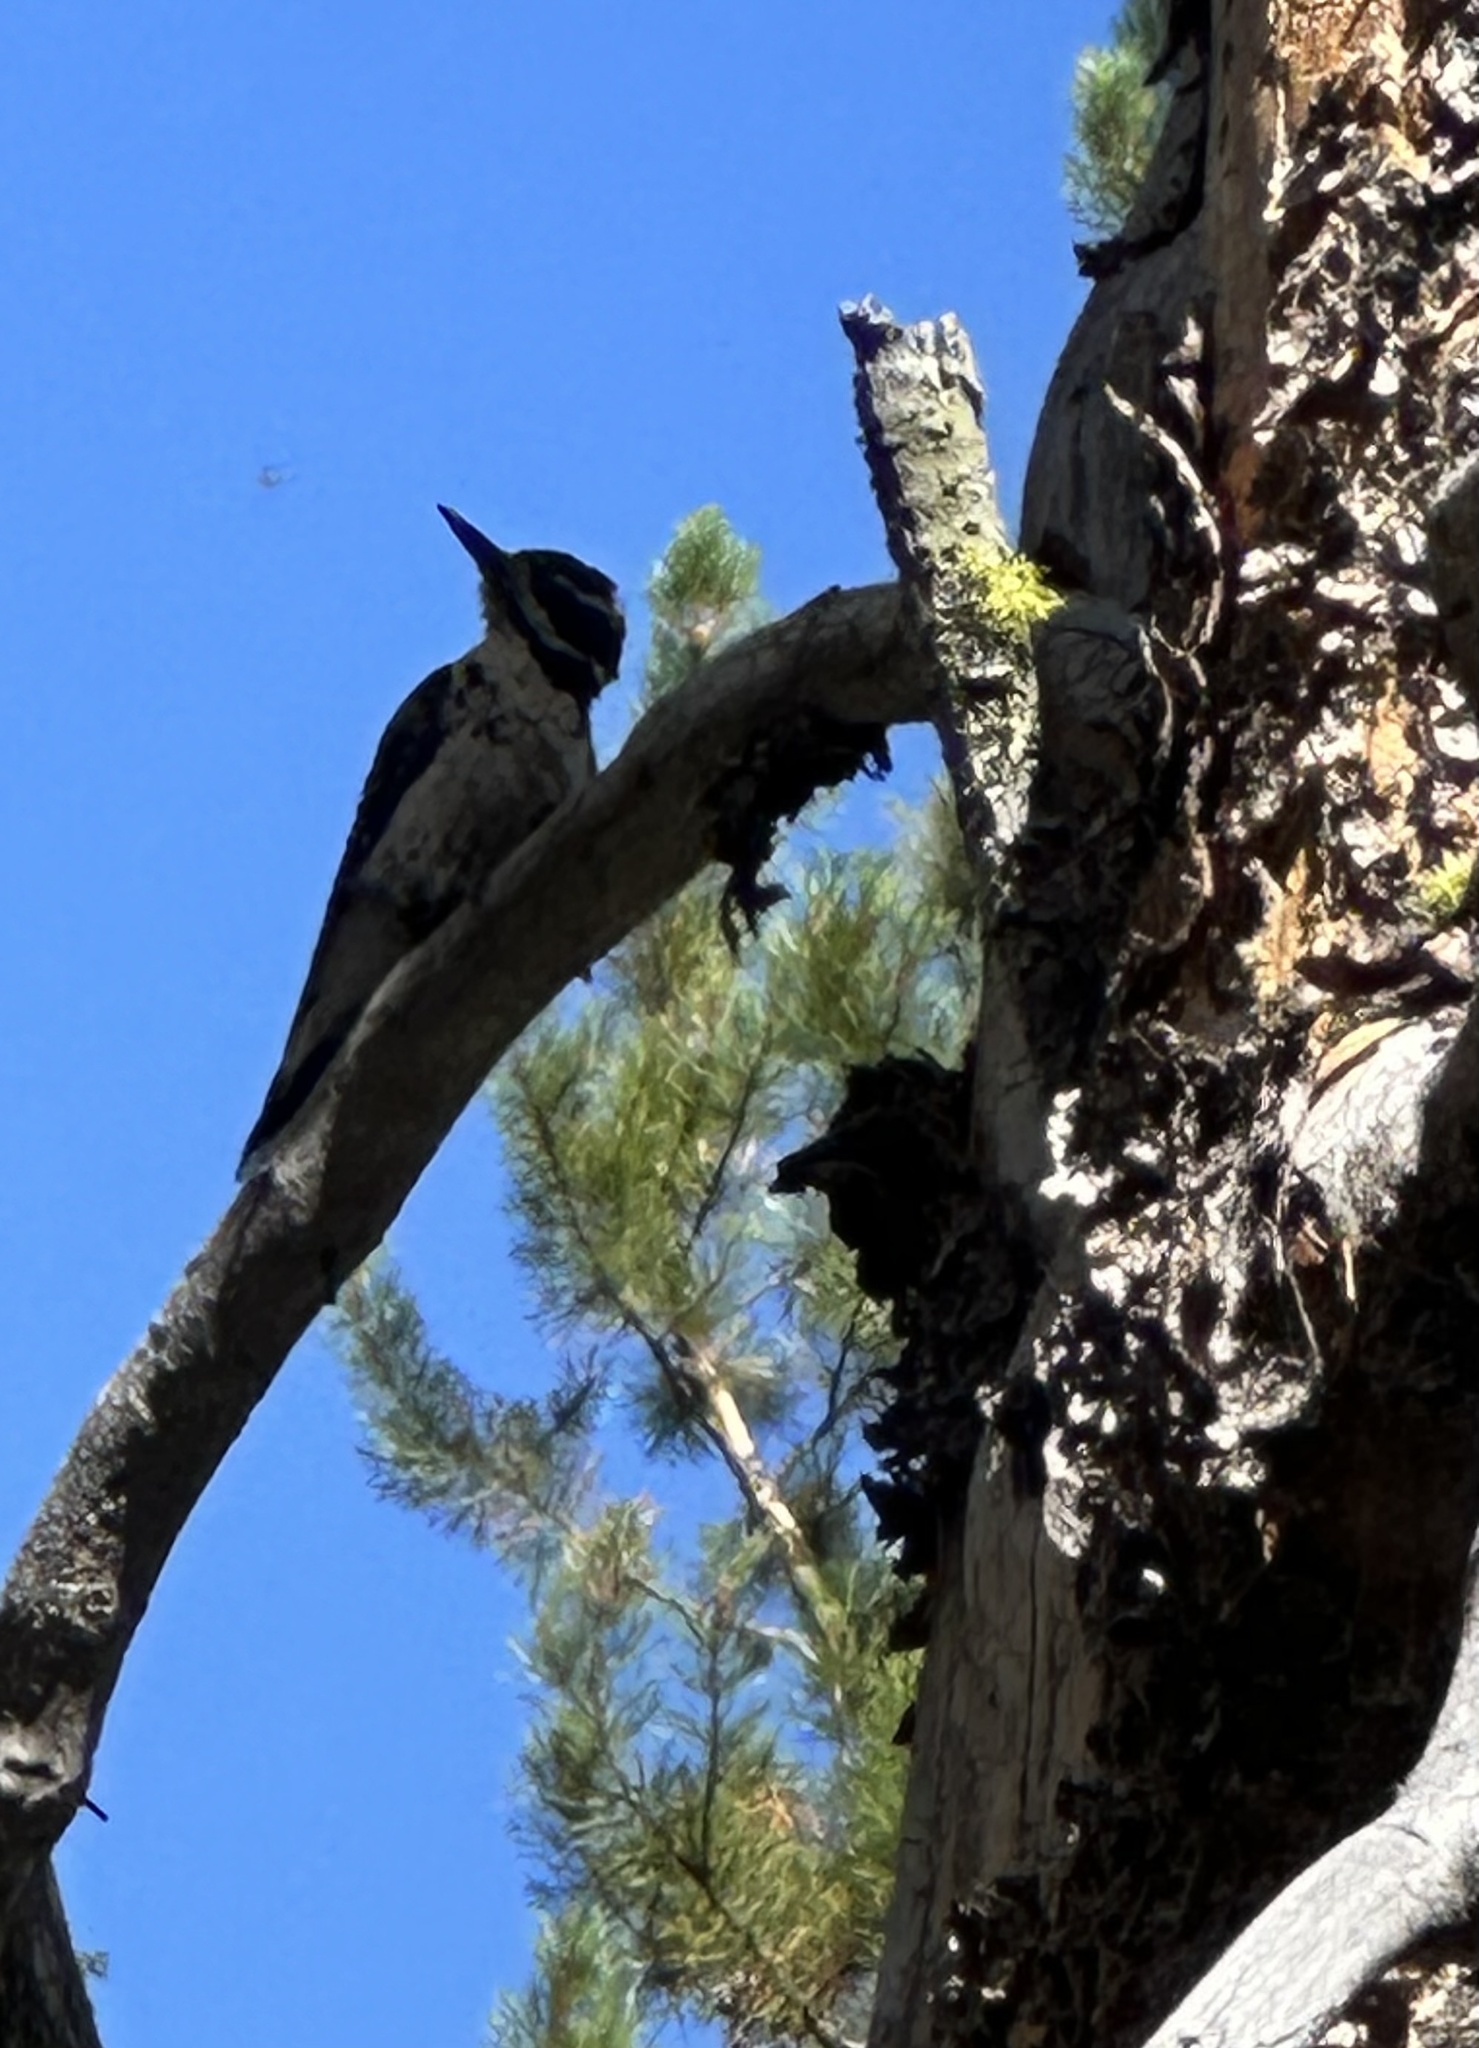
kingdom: Animalia
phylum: Chordata
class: Aves
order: Piciformes
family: Picidae
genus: Leuconotopicus
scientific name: Leuconotopicus villosus
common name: Hairy woodpecker
